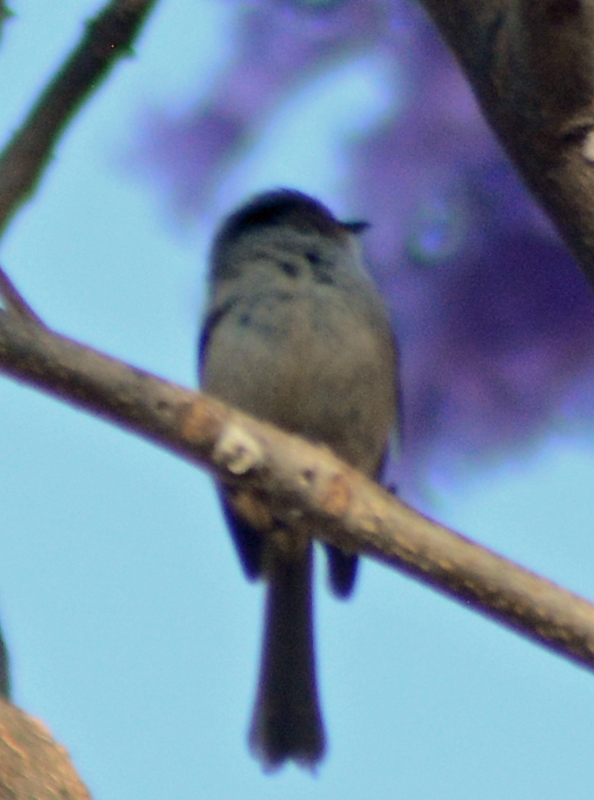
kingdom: Animalia
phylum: Chordata
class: Aves
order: Passeriformes
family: Aegithalidae
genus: Psaltriparus
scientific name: Psaltriparus minimus
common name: American bushtit
